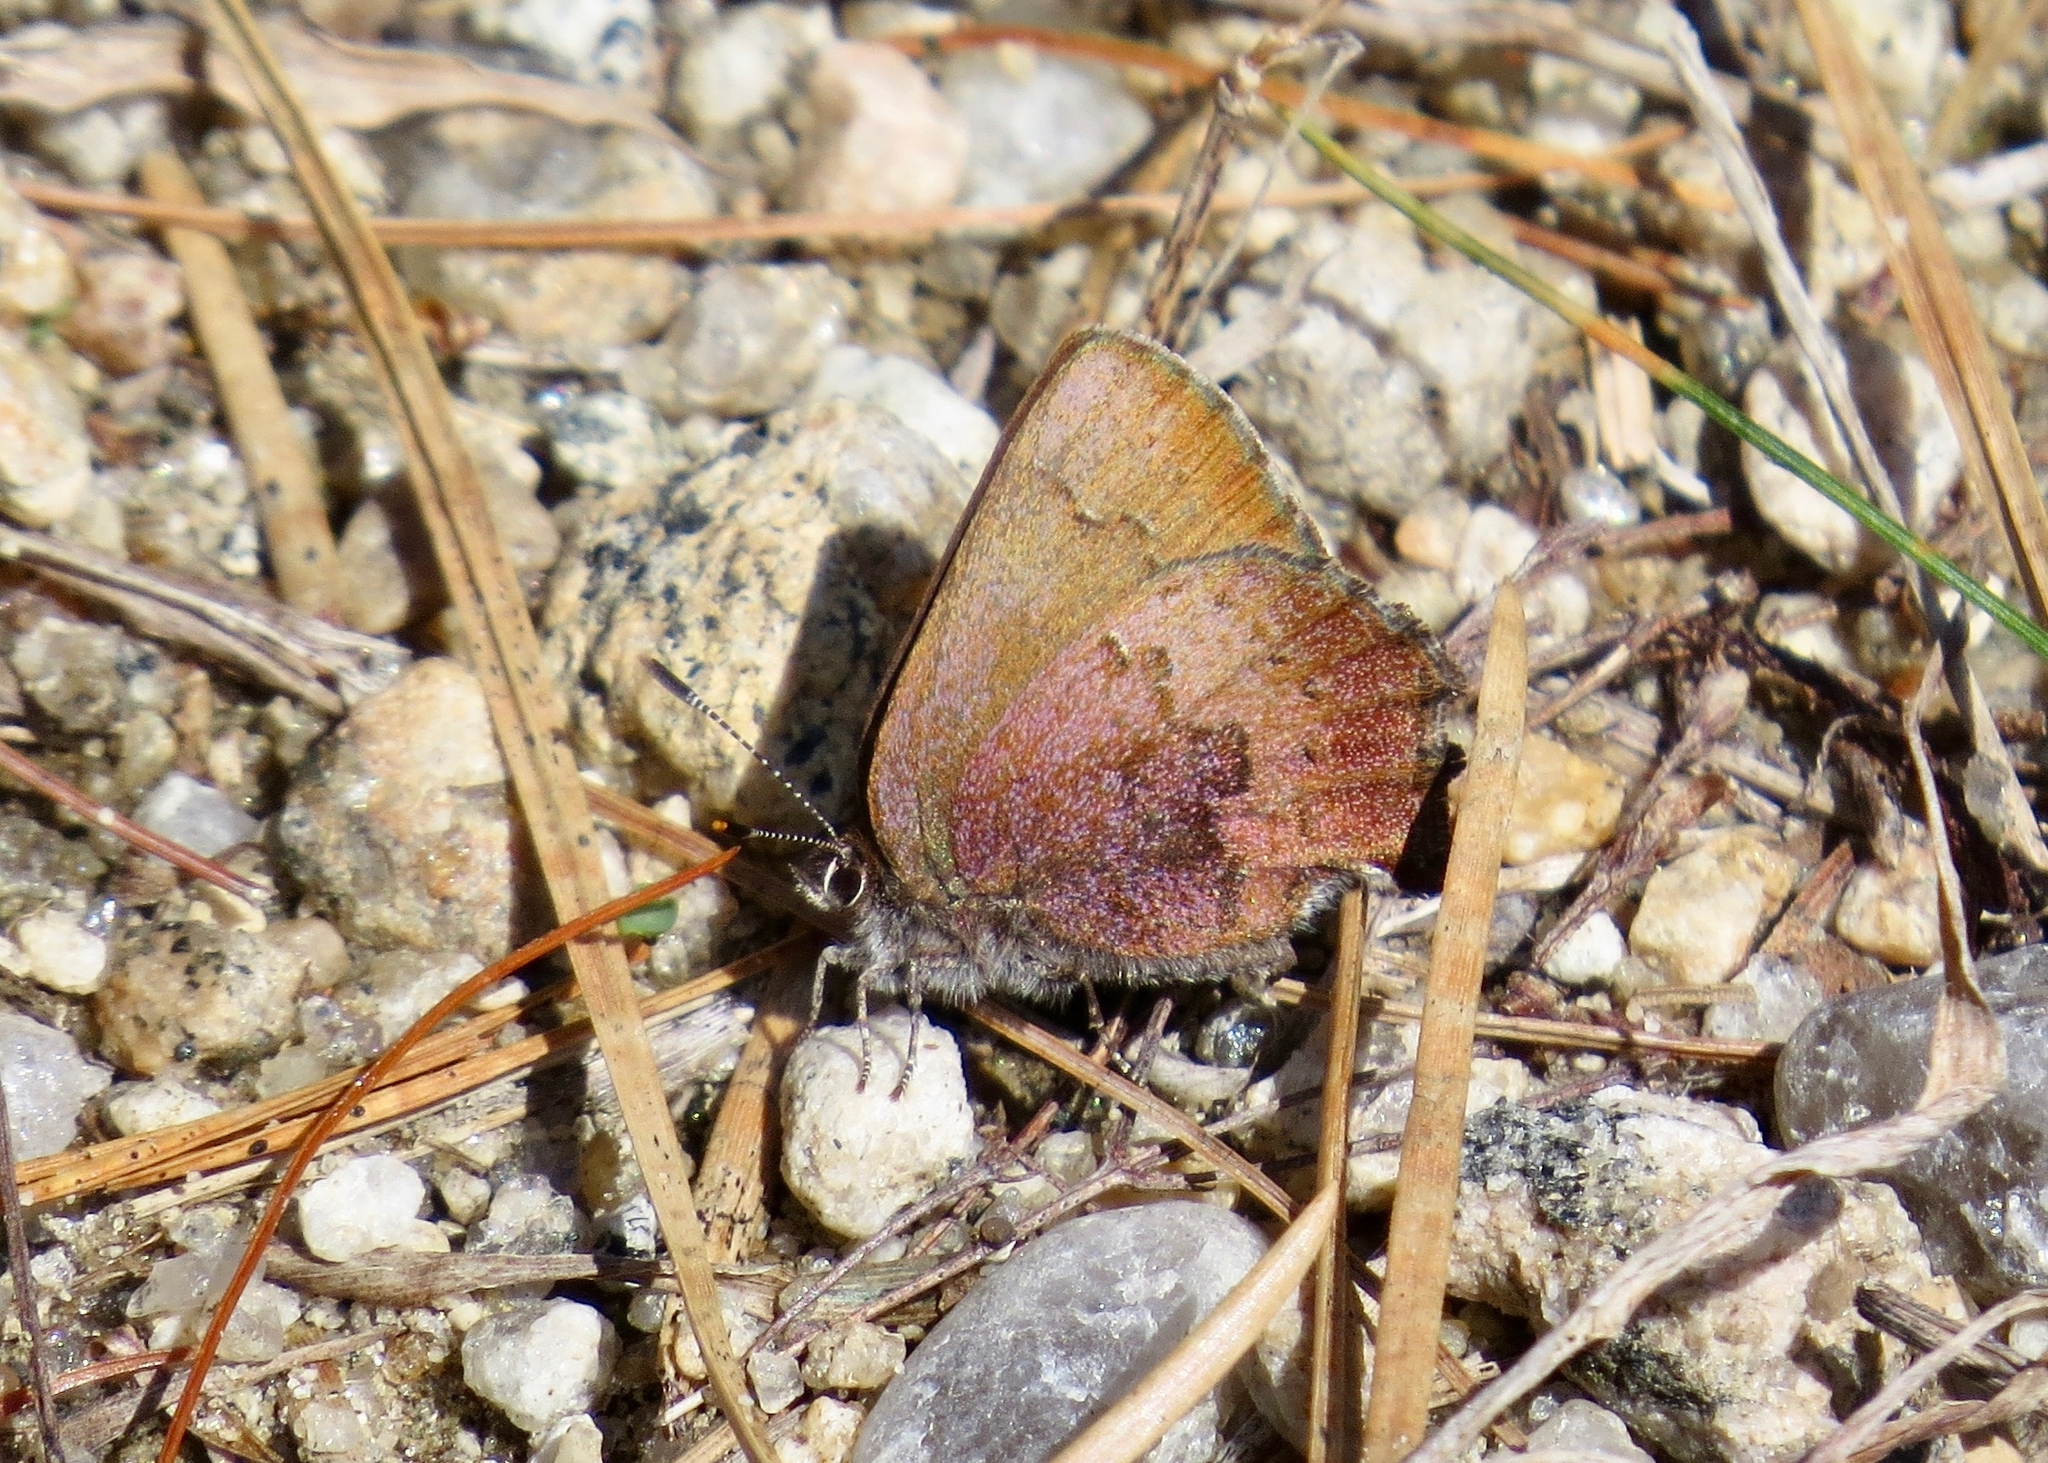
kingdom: Animalia
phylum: Arthropoda
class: Insecta
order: Lepidoptera
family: Lycaenidae
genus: Incisalia
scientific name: Incisalia irioides
